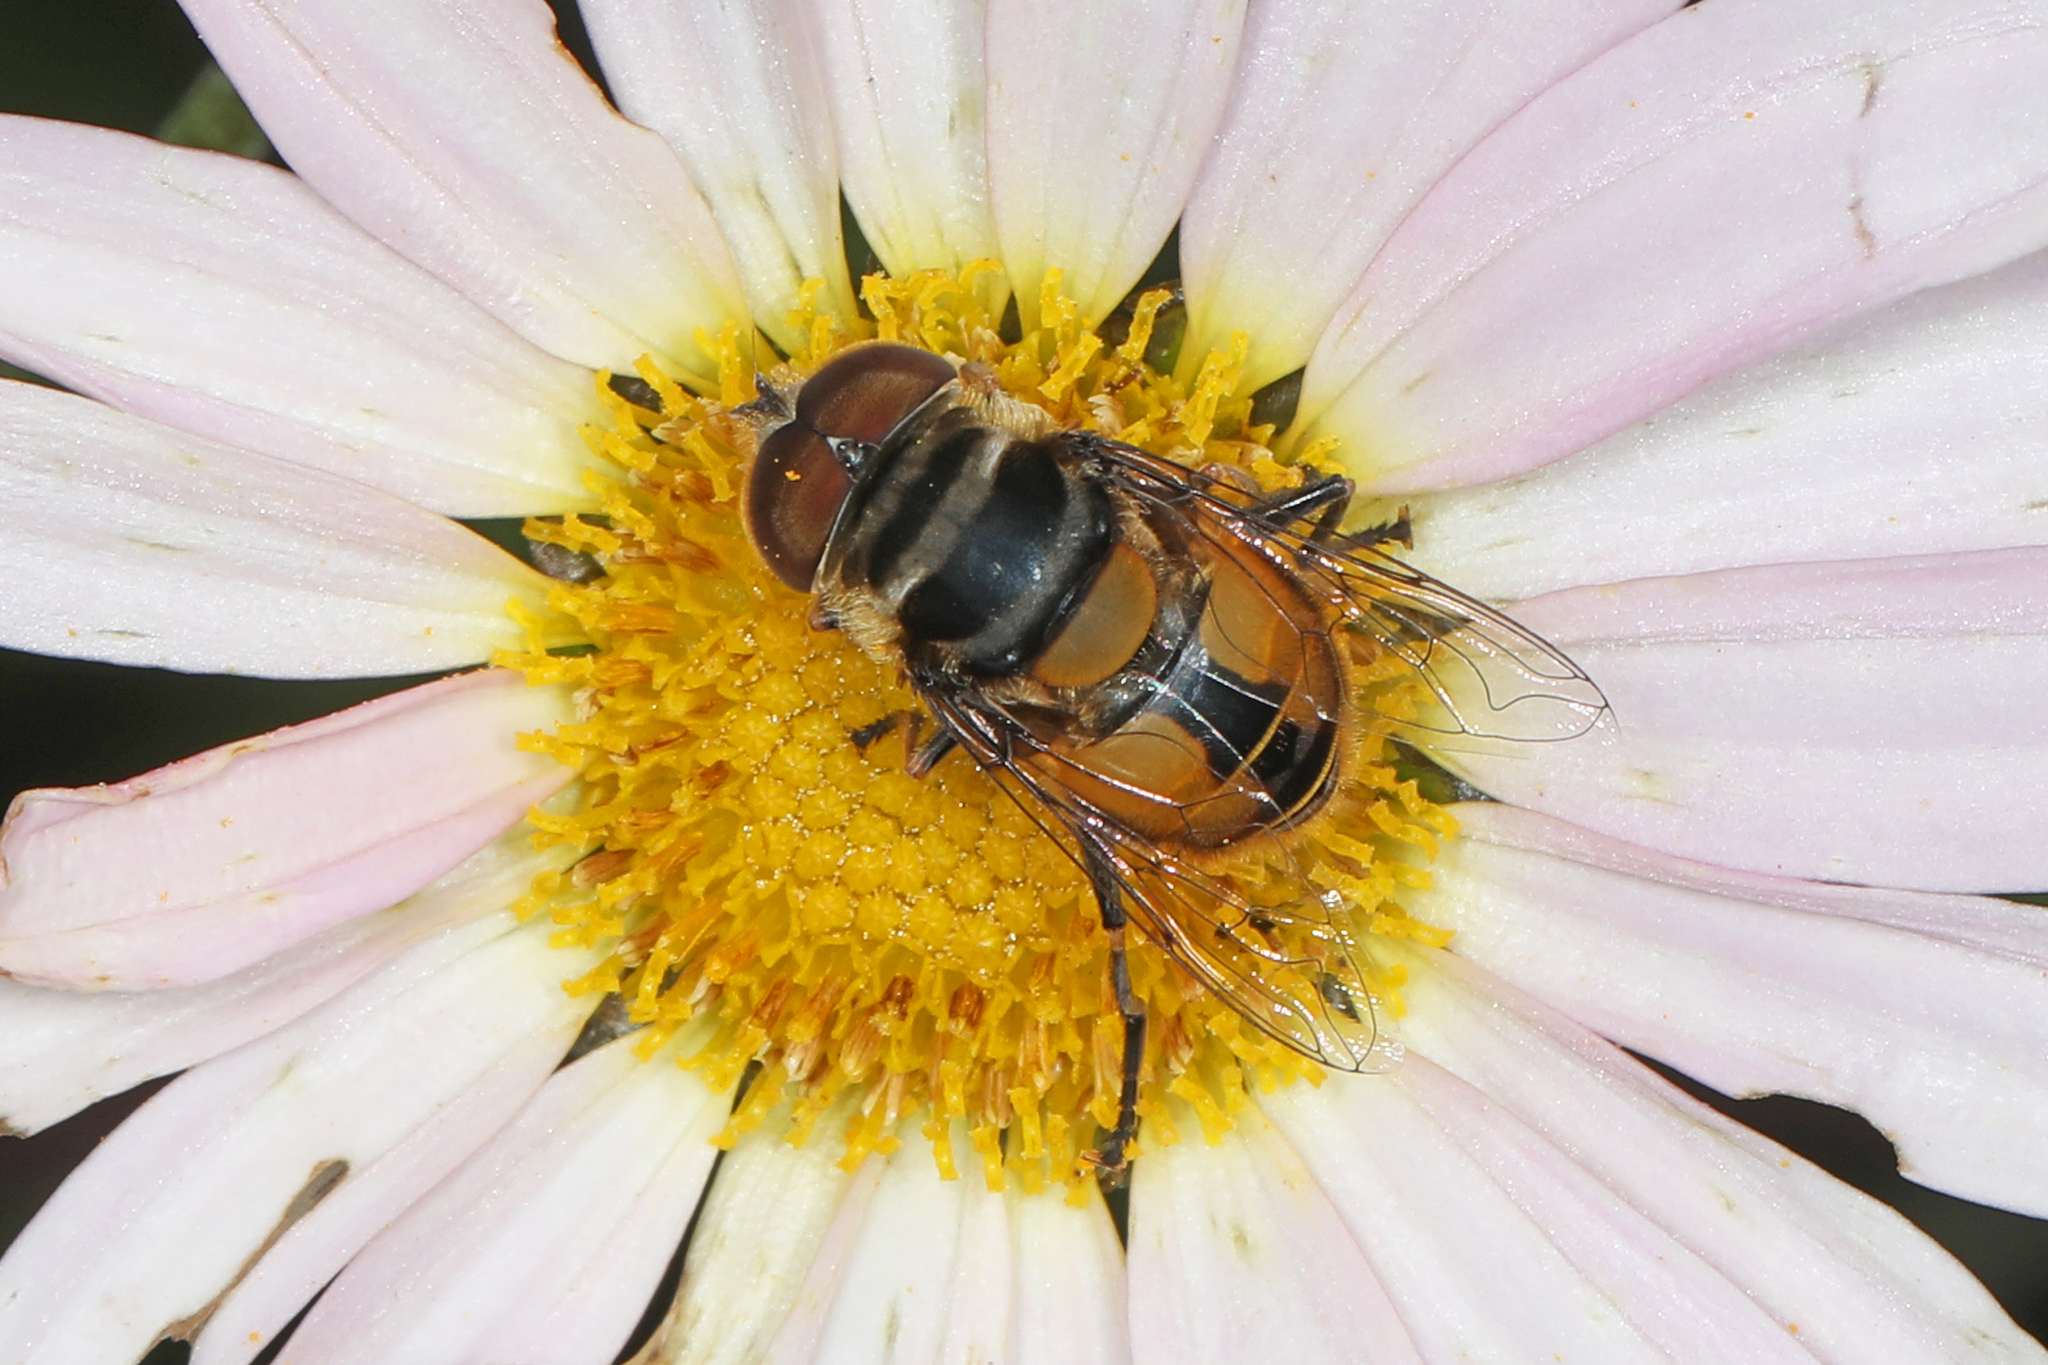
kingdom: Animalia
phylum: Arthropoda
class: Insecta
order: Diptera
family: Syrphidae
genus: Palpada
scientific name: Palpada agrorum
